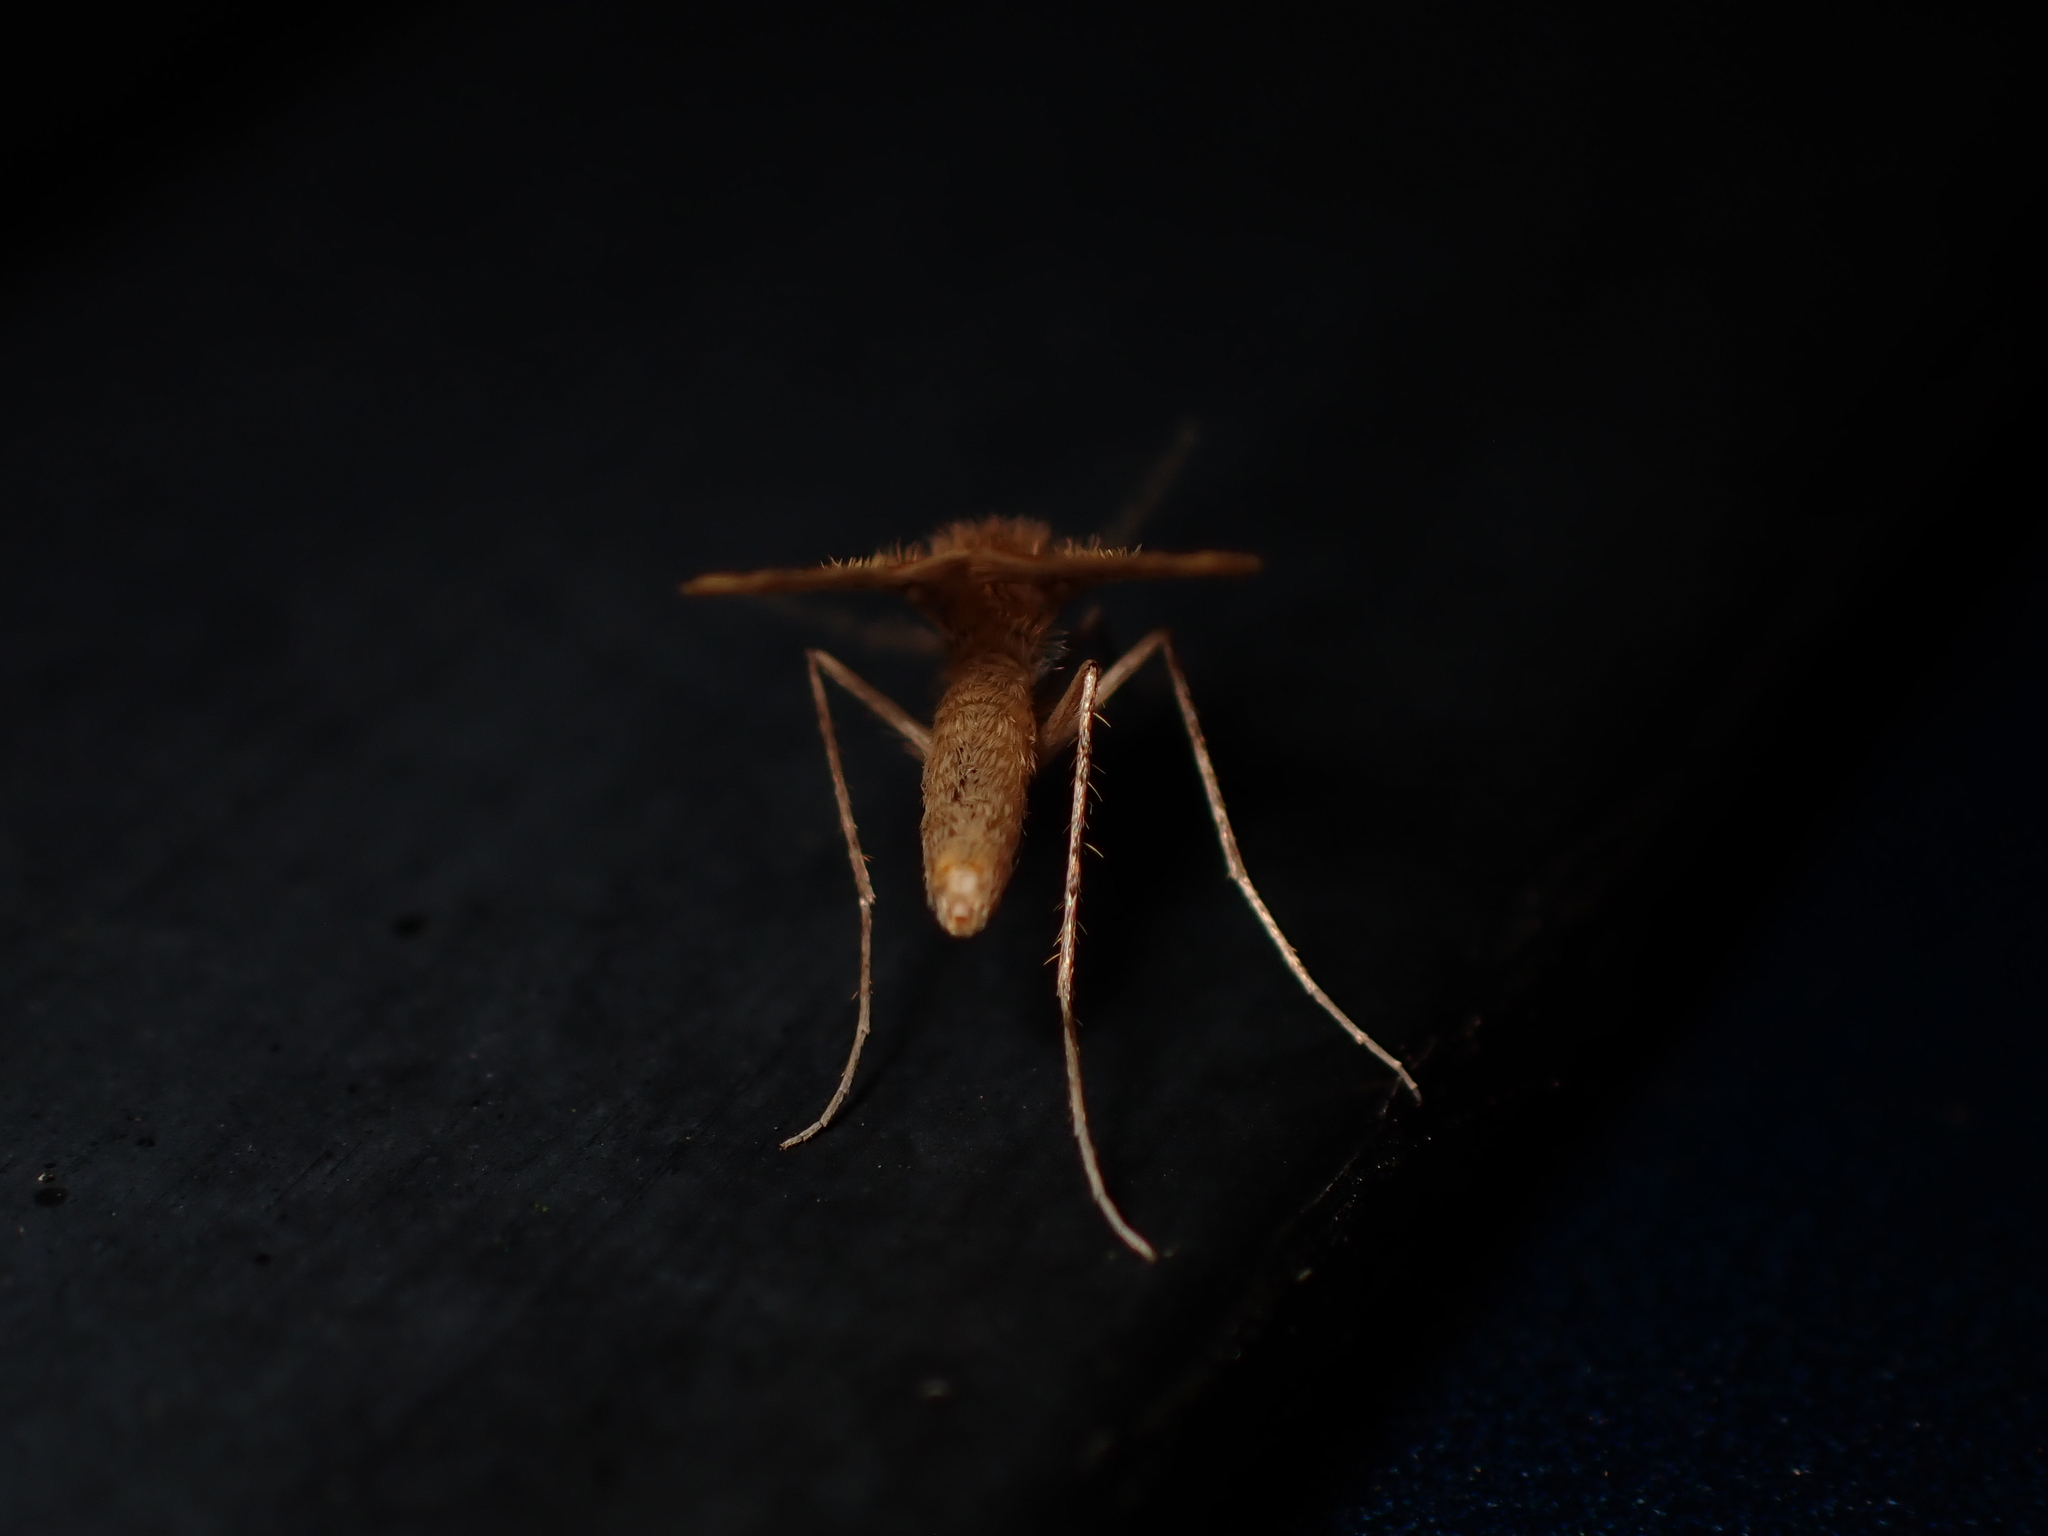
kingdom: Animalia
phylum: Arthropoda
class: Insecta
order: Diptera
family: Psychodidae
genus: Notofairchildia
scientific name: Notofairchildia zelandiae
